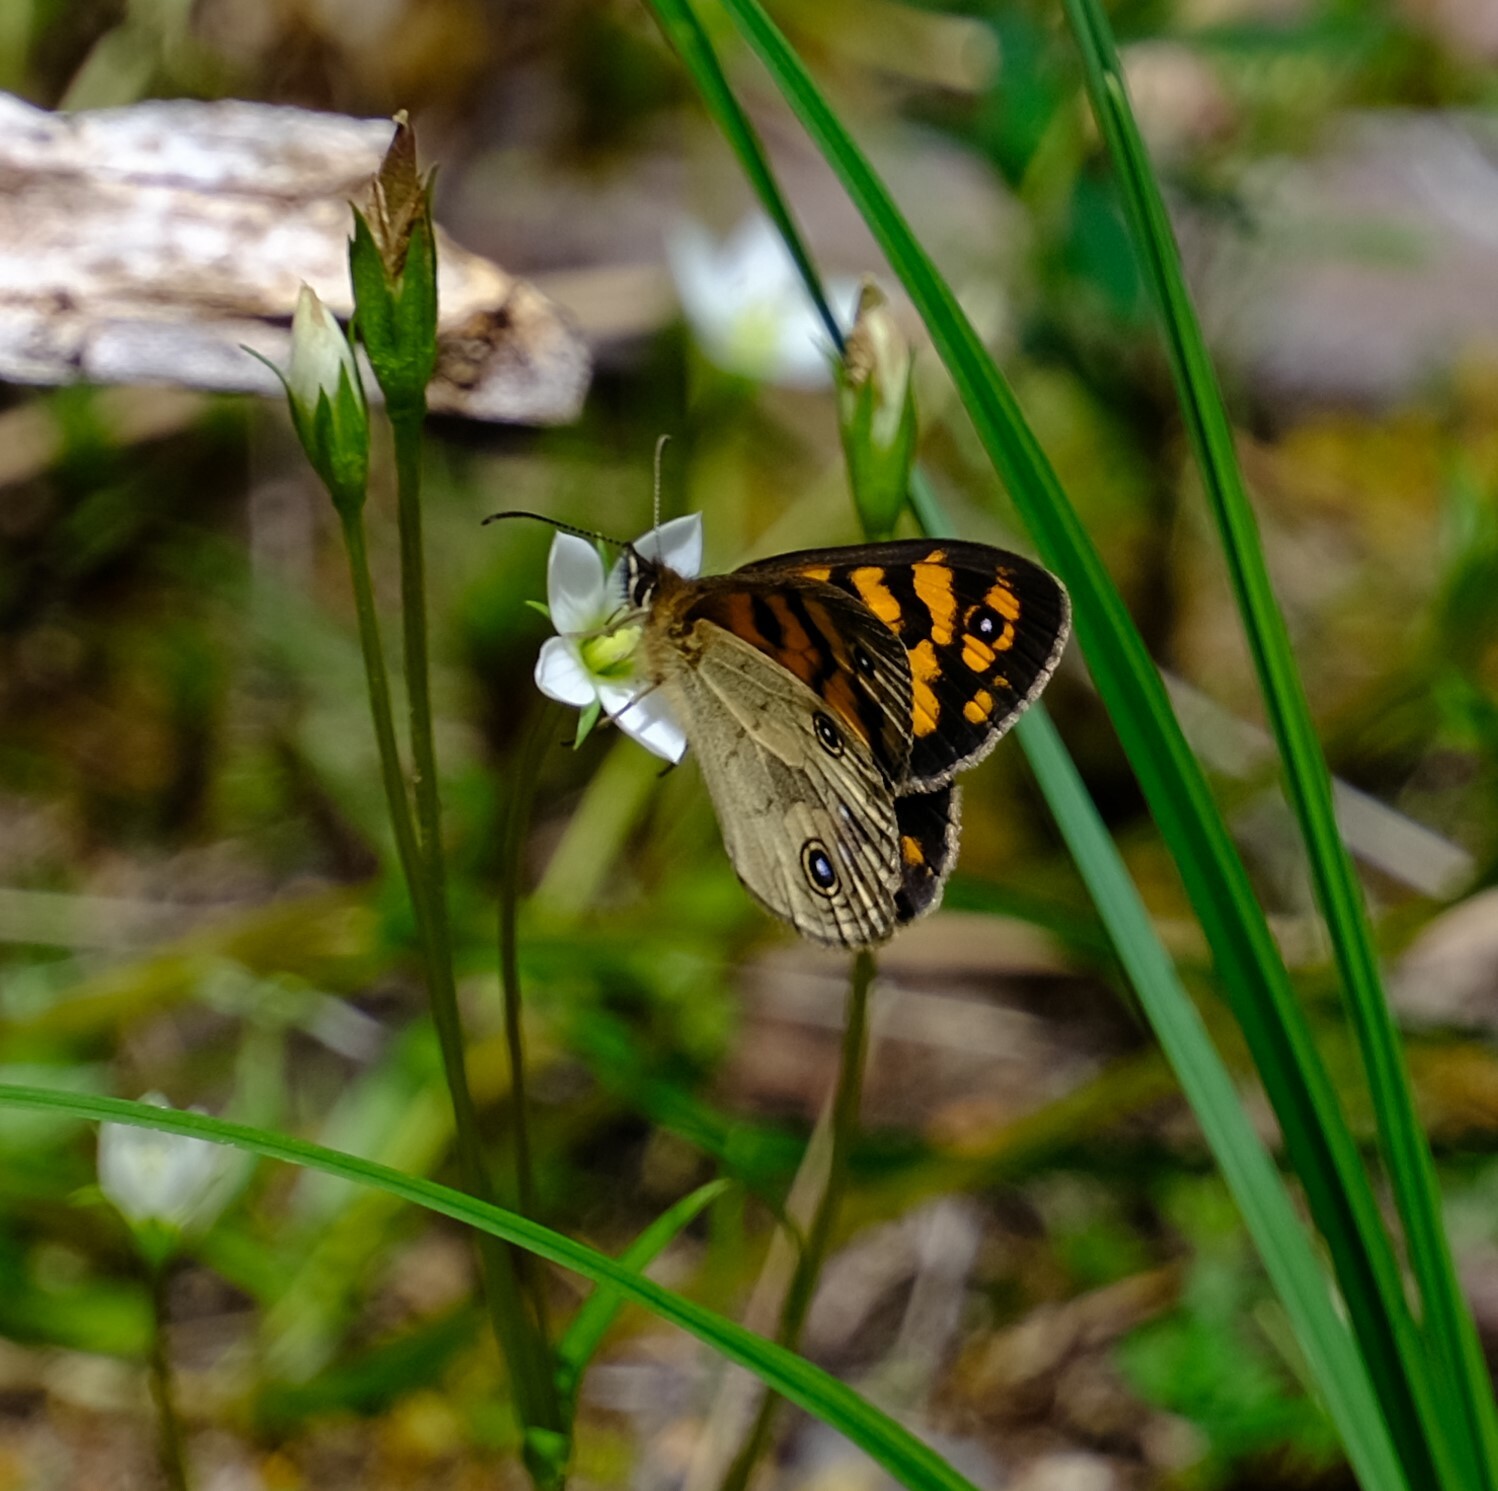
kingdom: Animalia
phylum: Arthropoda
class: Insecta
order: Lepidoptera
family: Nymphalidae
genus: Heteronympha
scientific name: Heteronympha cordace
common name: Bright-eyed brown
